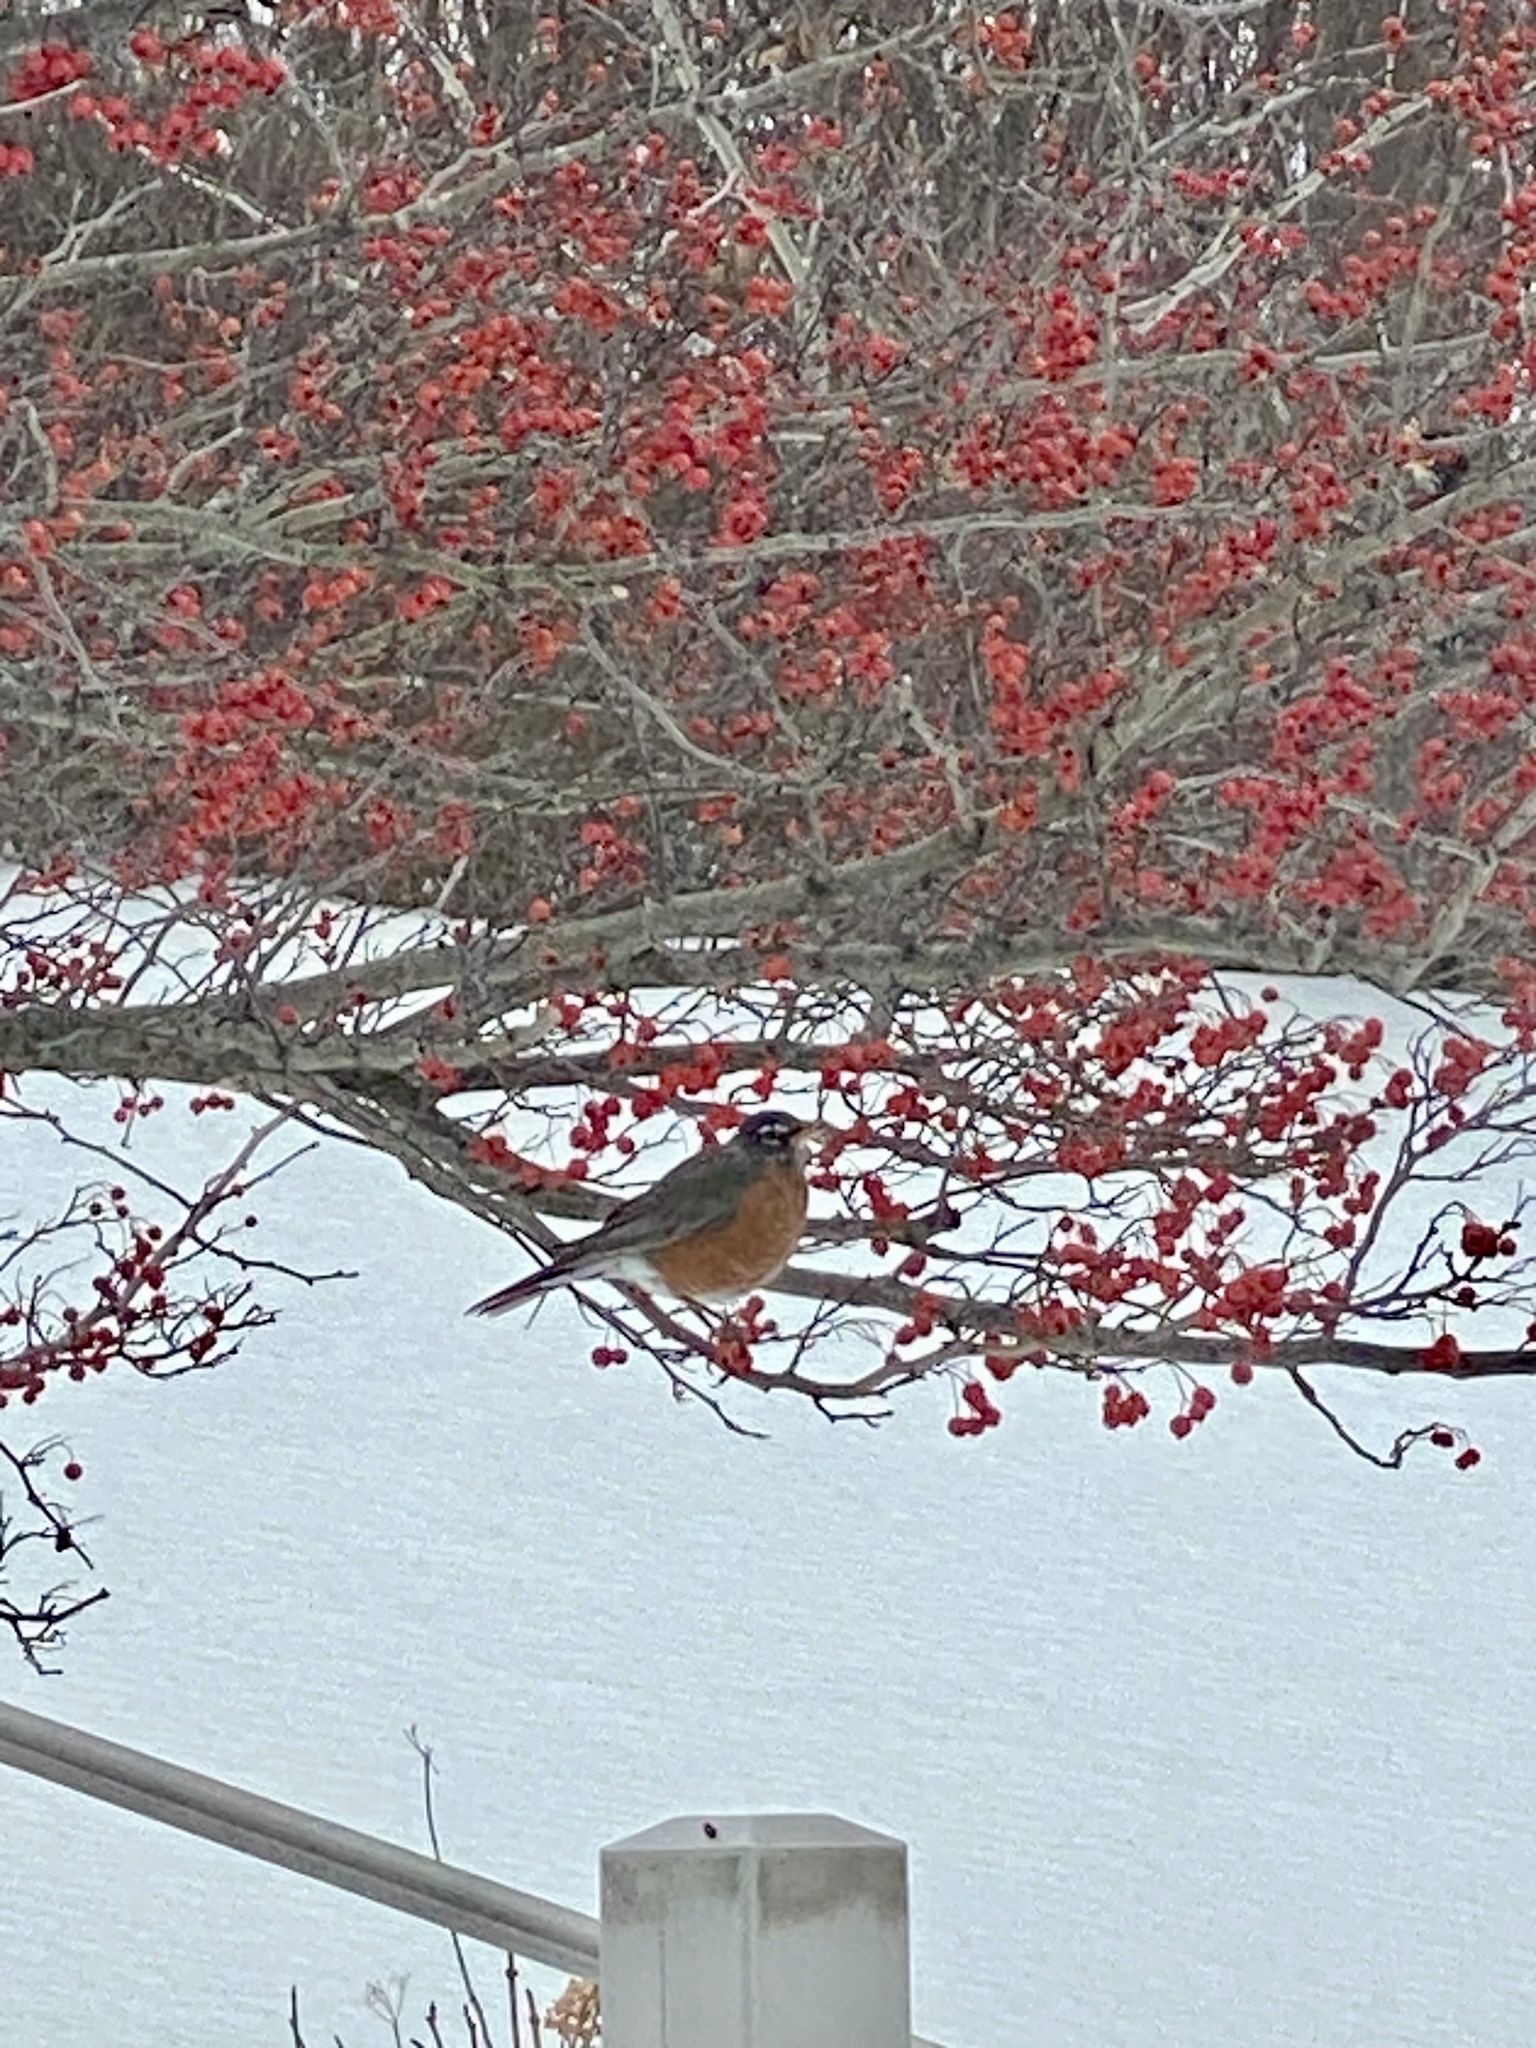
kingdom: Animalia
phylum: Chordata
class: Aves
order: Passeriformes
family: Turdidae
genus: Turdus
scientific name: Turdus migratorius
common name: American robin
